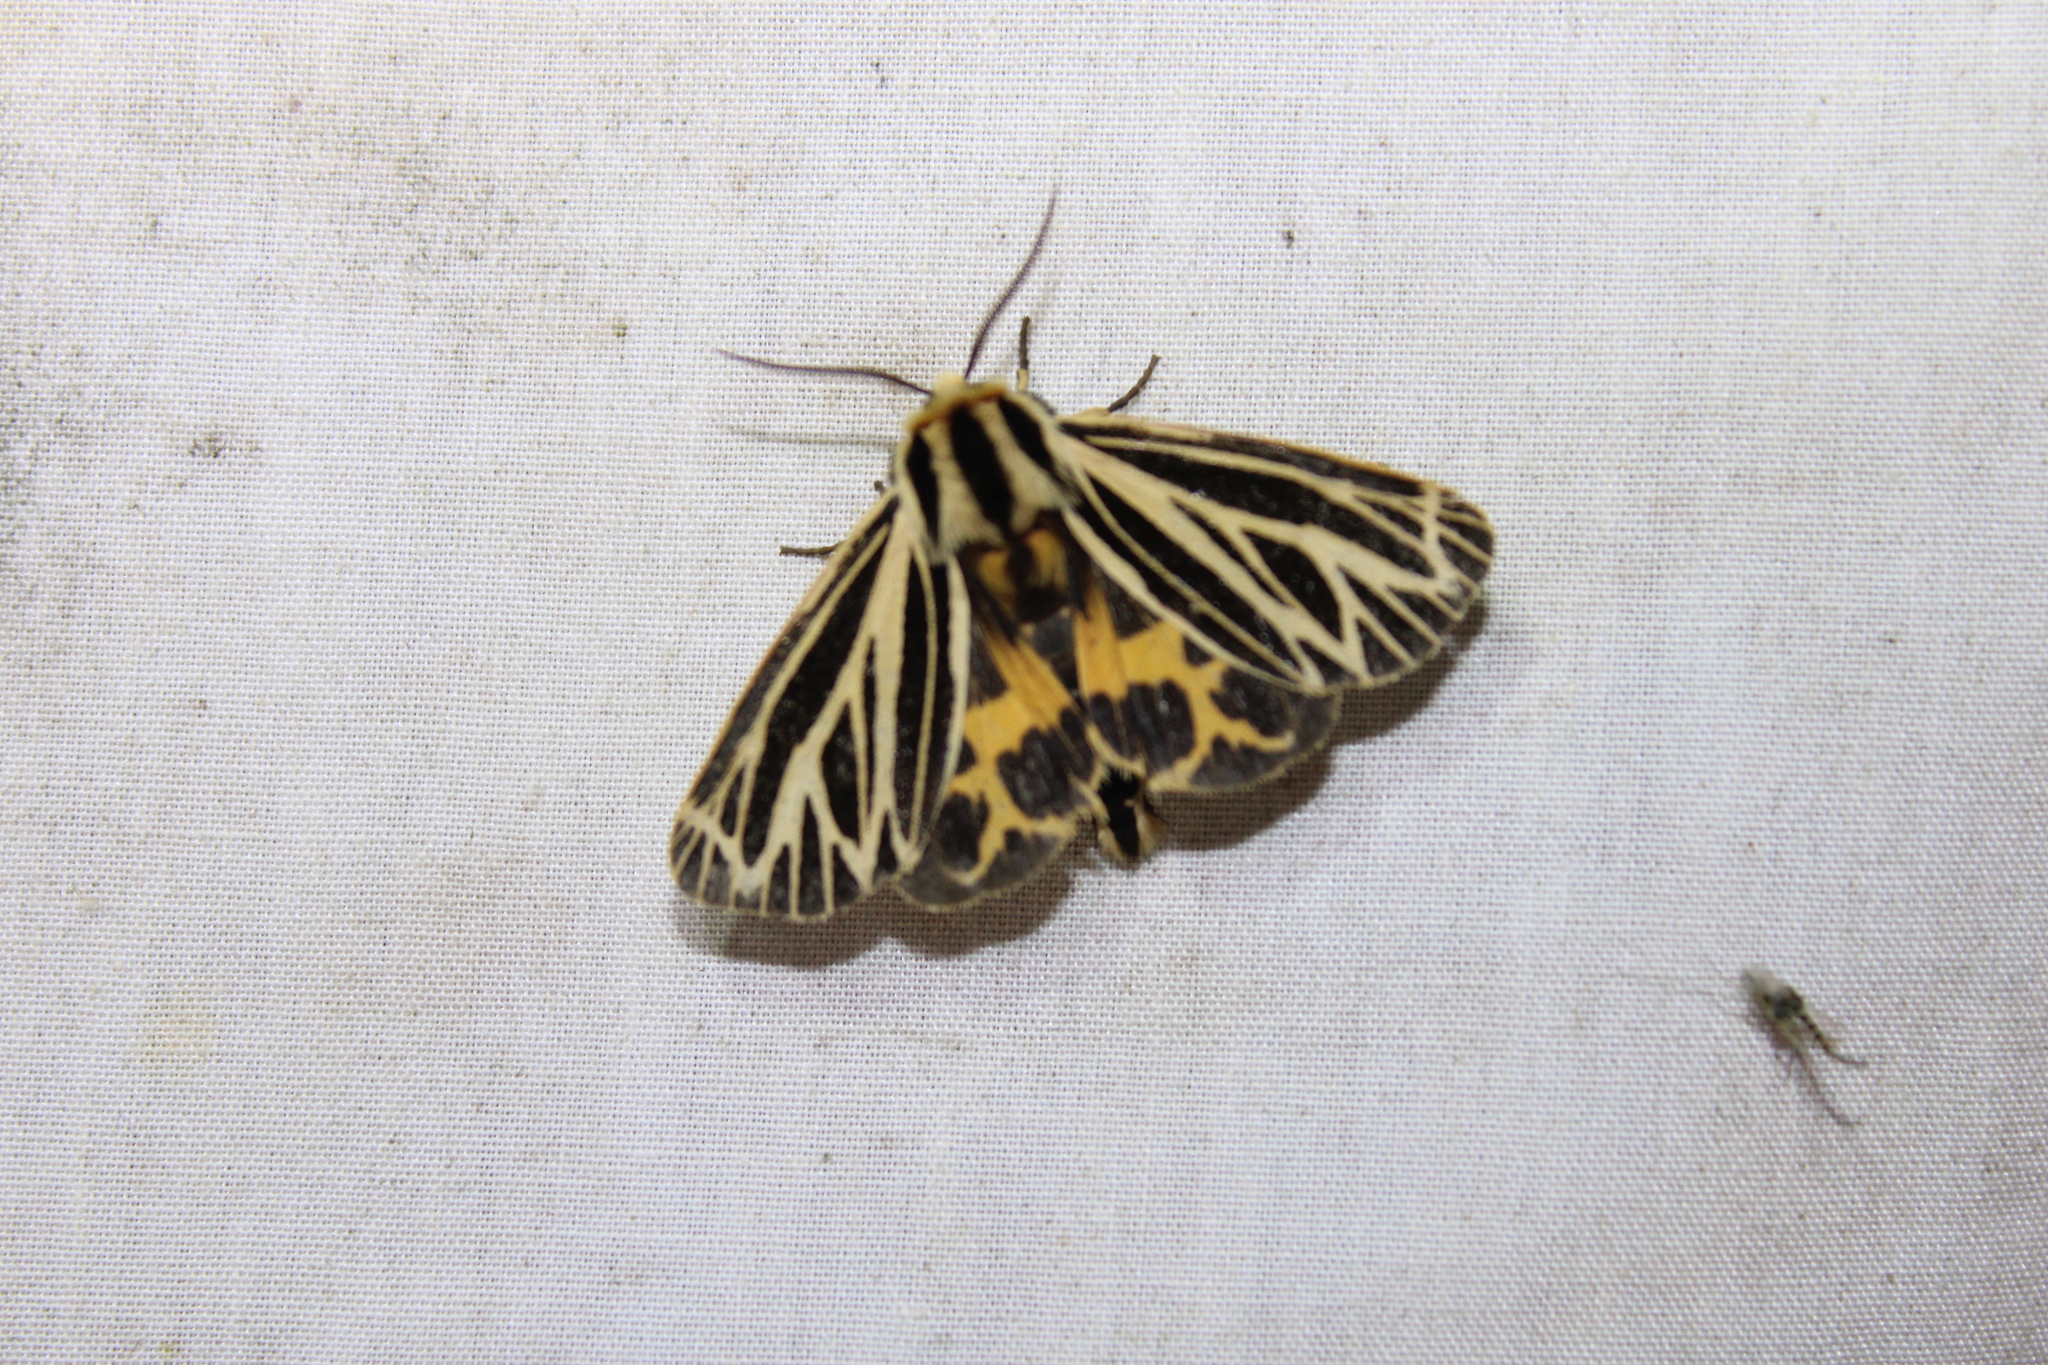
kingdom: Animalia
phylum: Arthropoda
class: Insecta
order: Lepidoptera
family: Erebidae
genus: Grammia
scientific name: Grammia virguncula
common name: Little tiger moth
